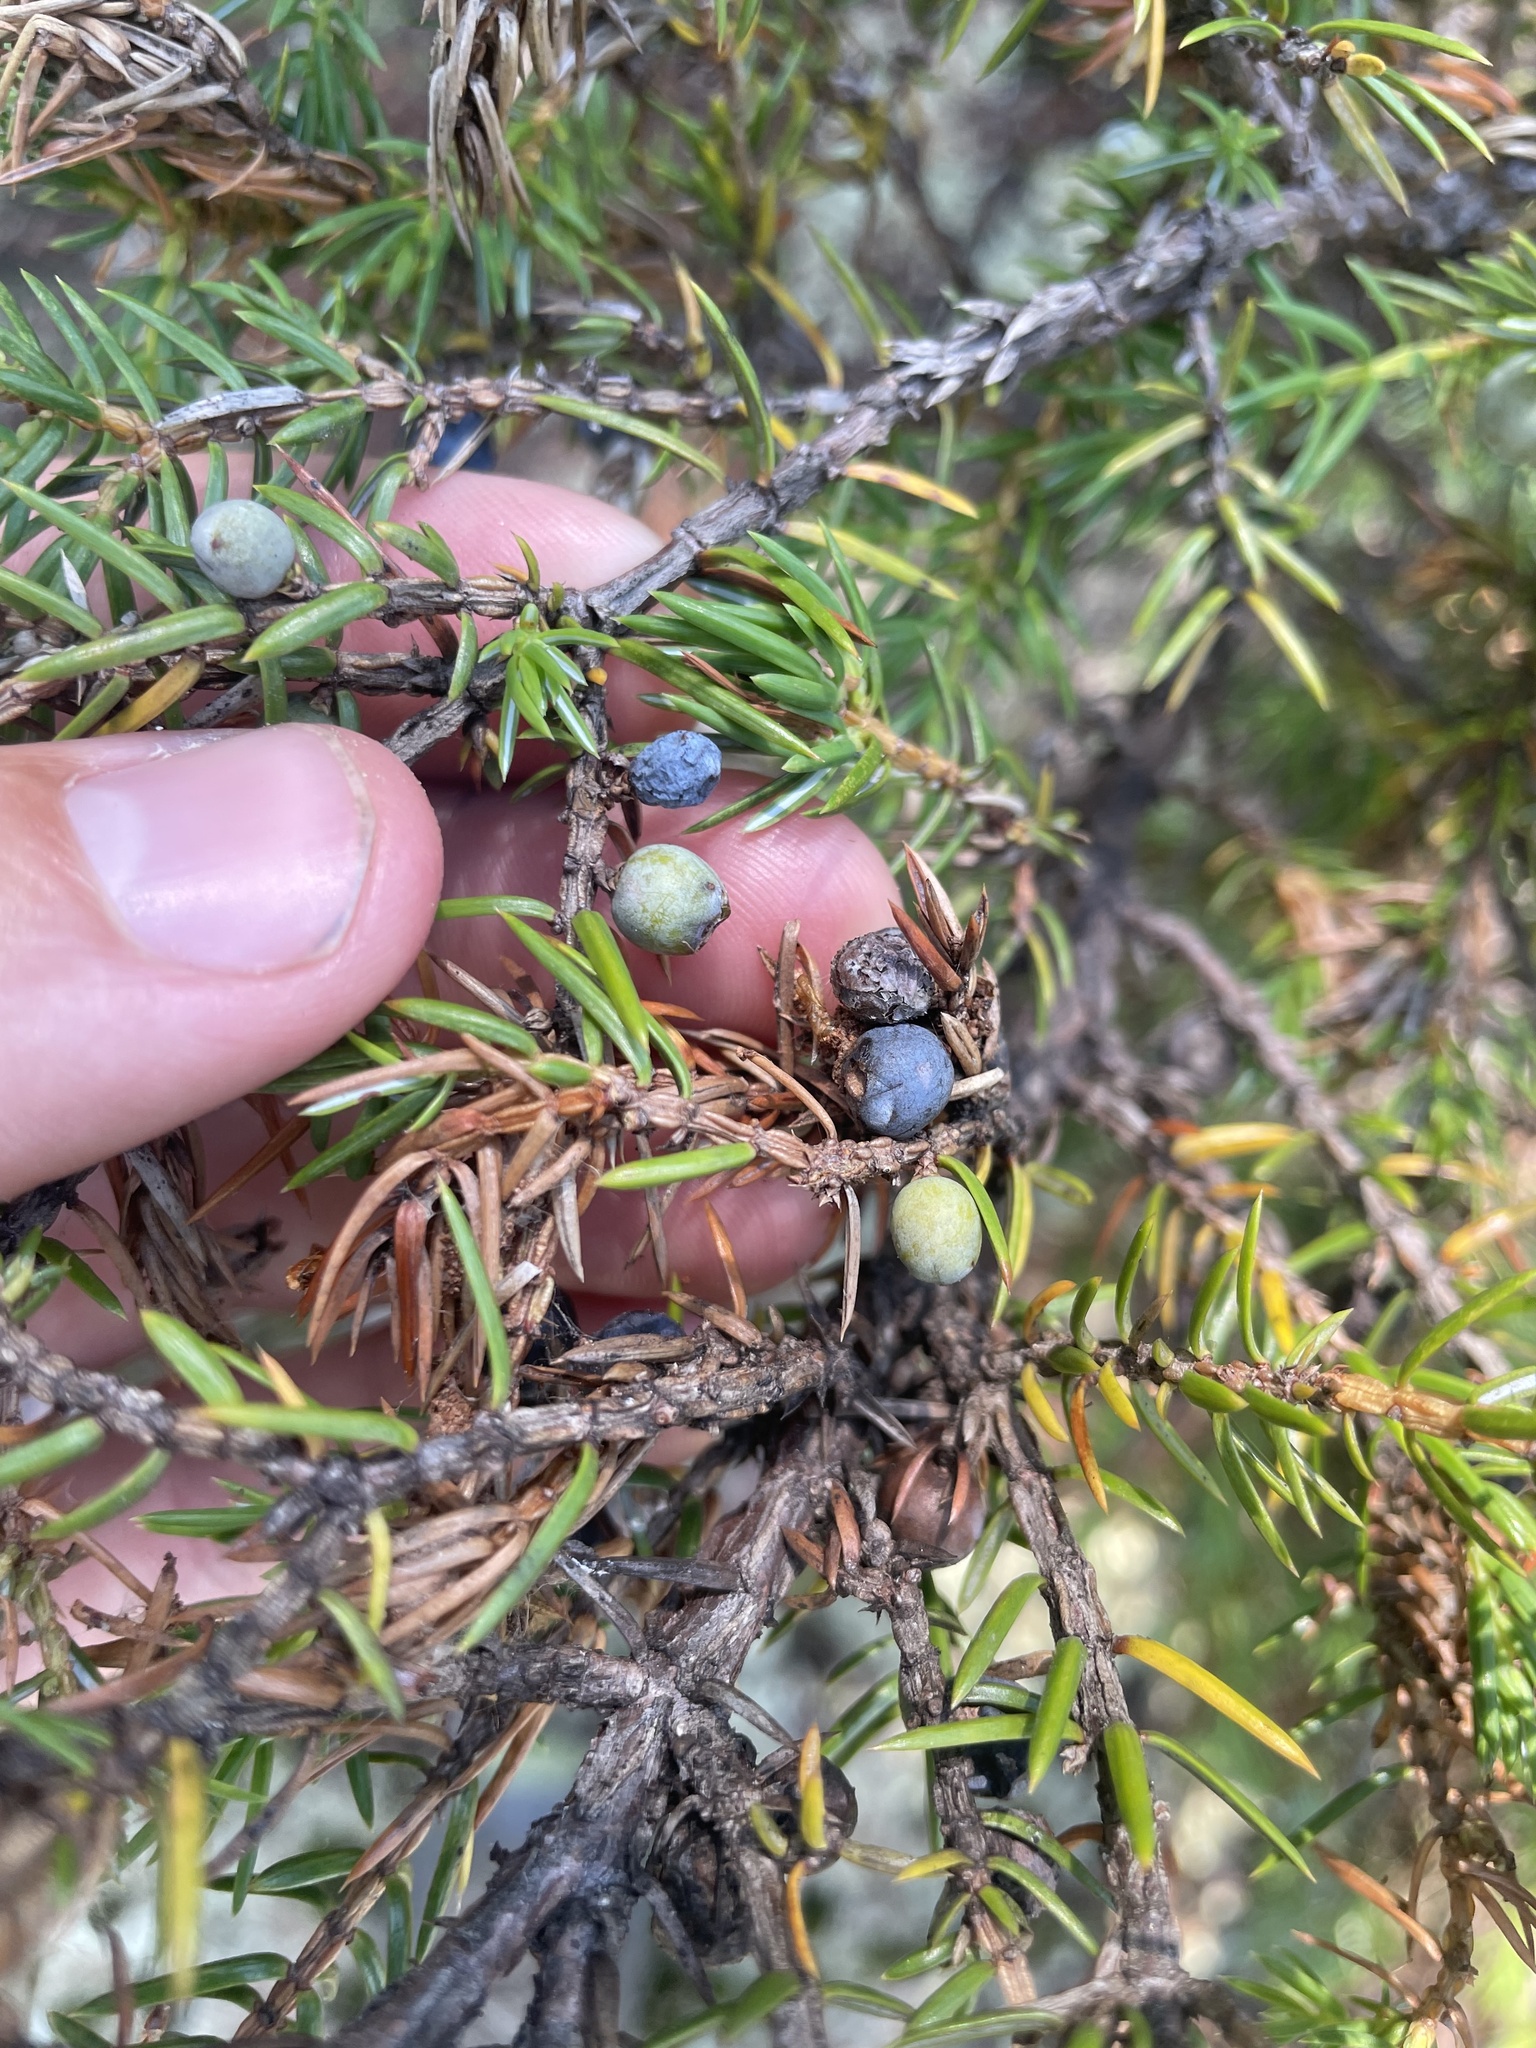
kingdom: Plantae
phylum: Tracheophyta
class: Pinopsida
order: Pinales
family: Cupressaceae
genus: Juniperus
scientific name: Juniperus communis
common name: Common juniper
